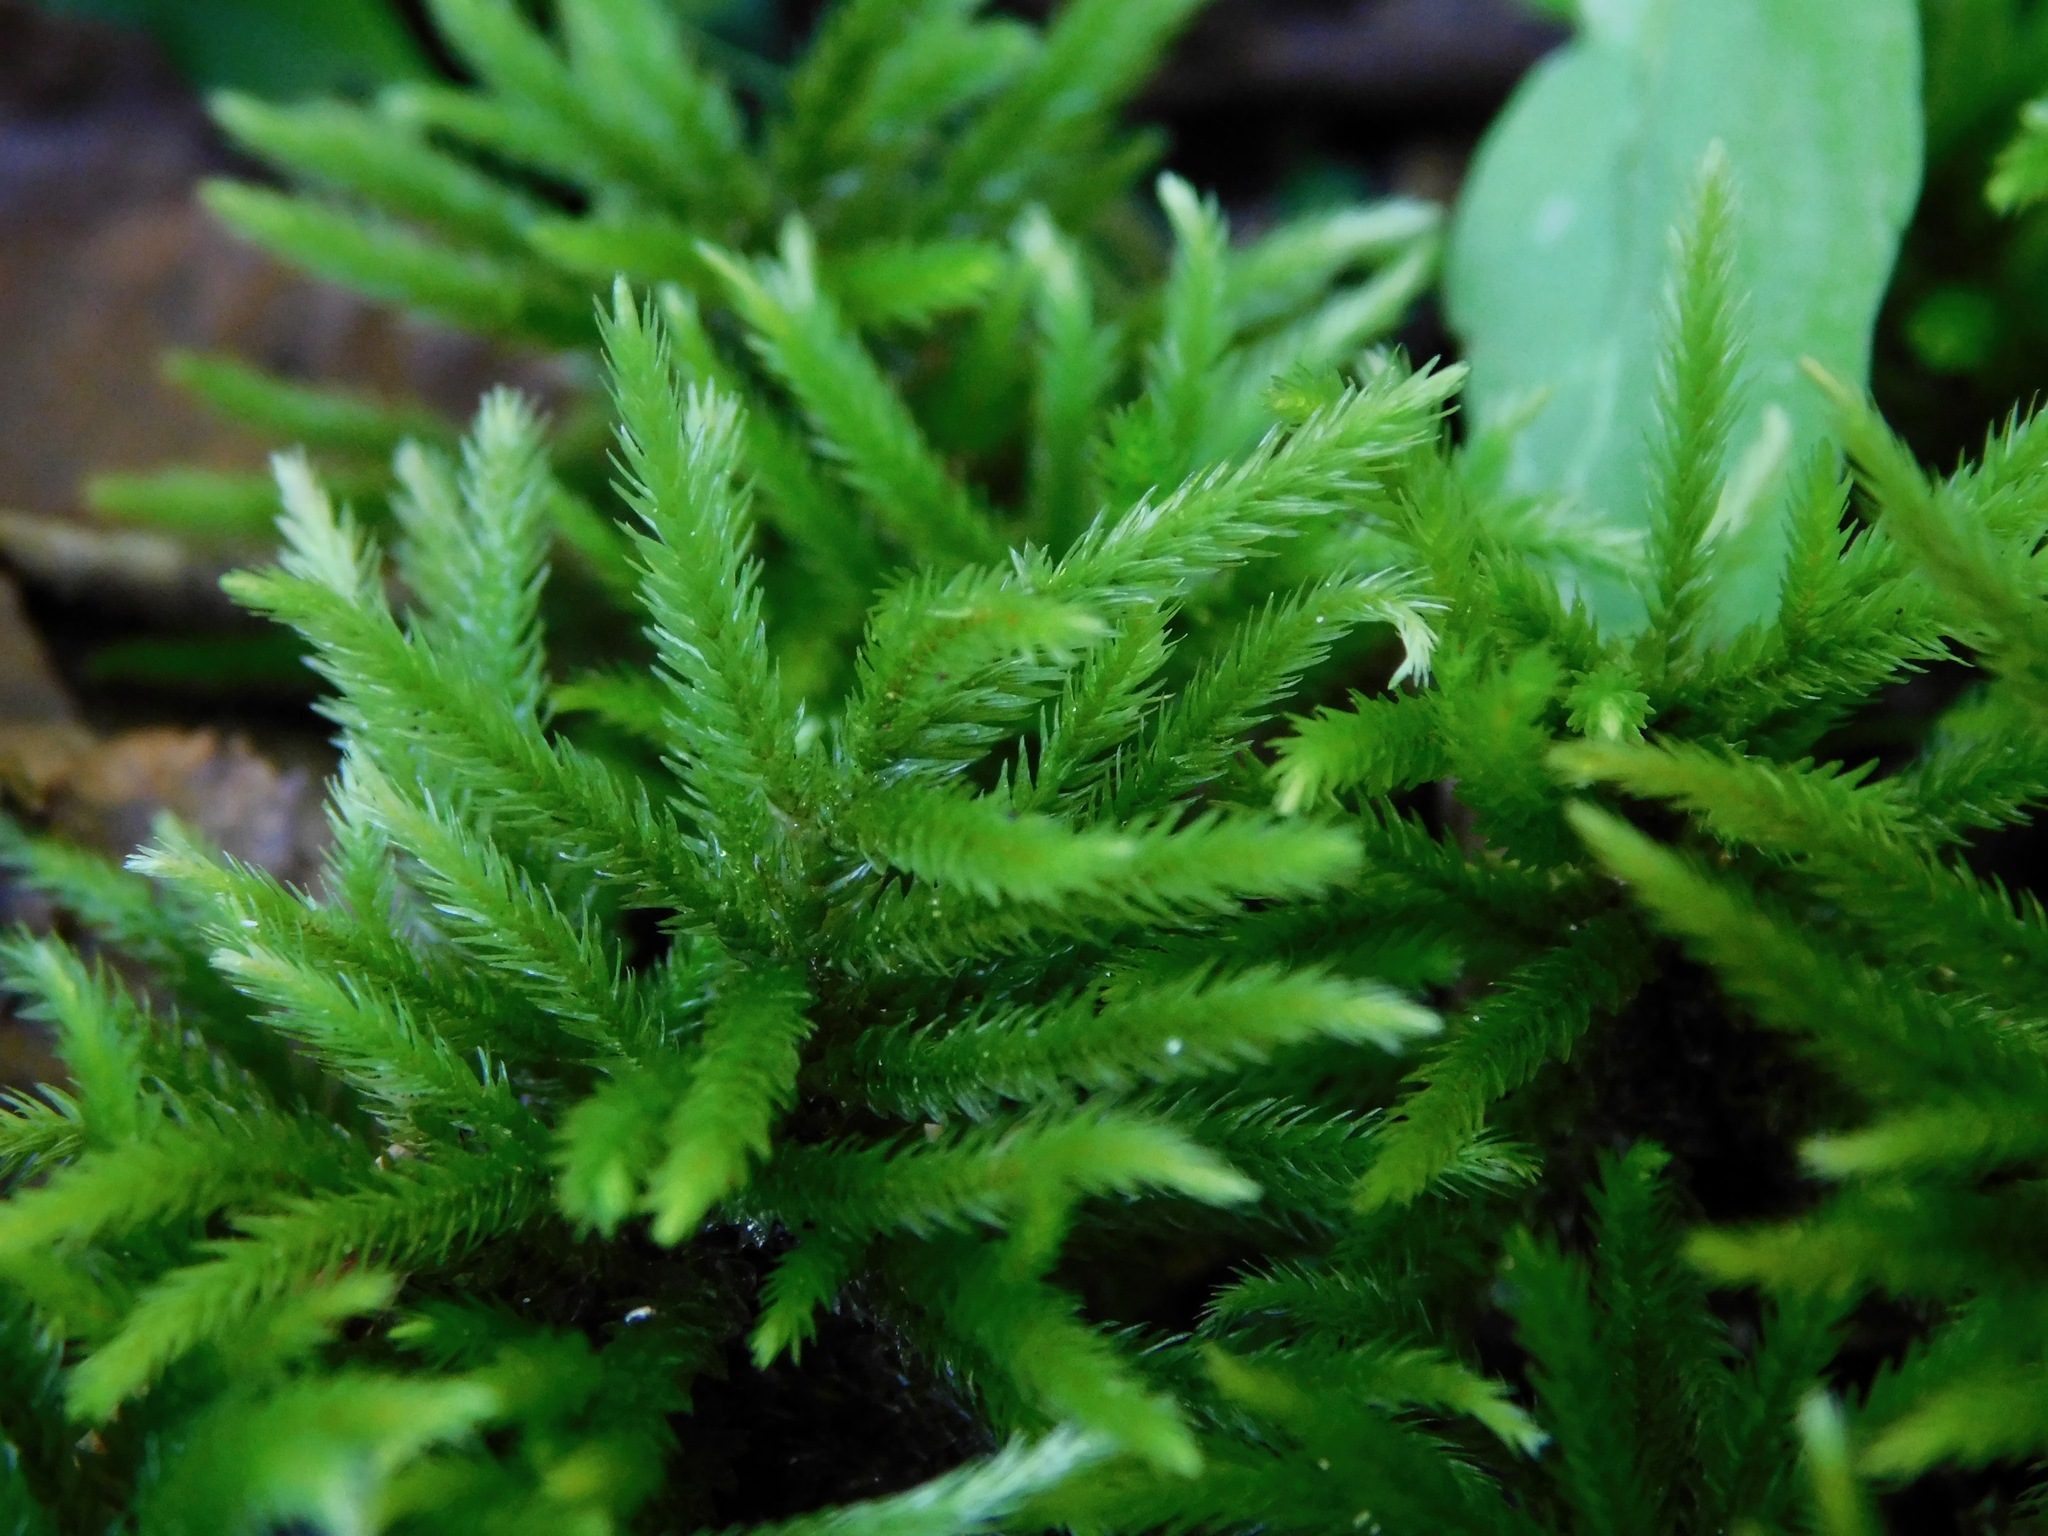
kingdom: Plantae
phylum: Bryophyta
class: Bryopsida
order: Hypnales
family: Climaciaceae
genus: Climacium
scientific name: Climacium americanum
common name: American tree moss
